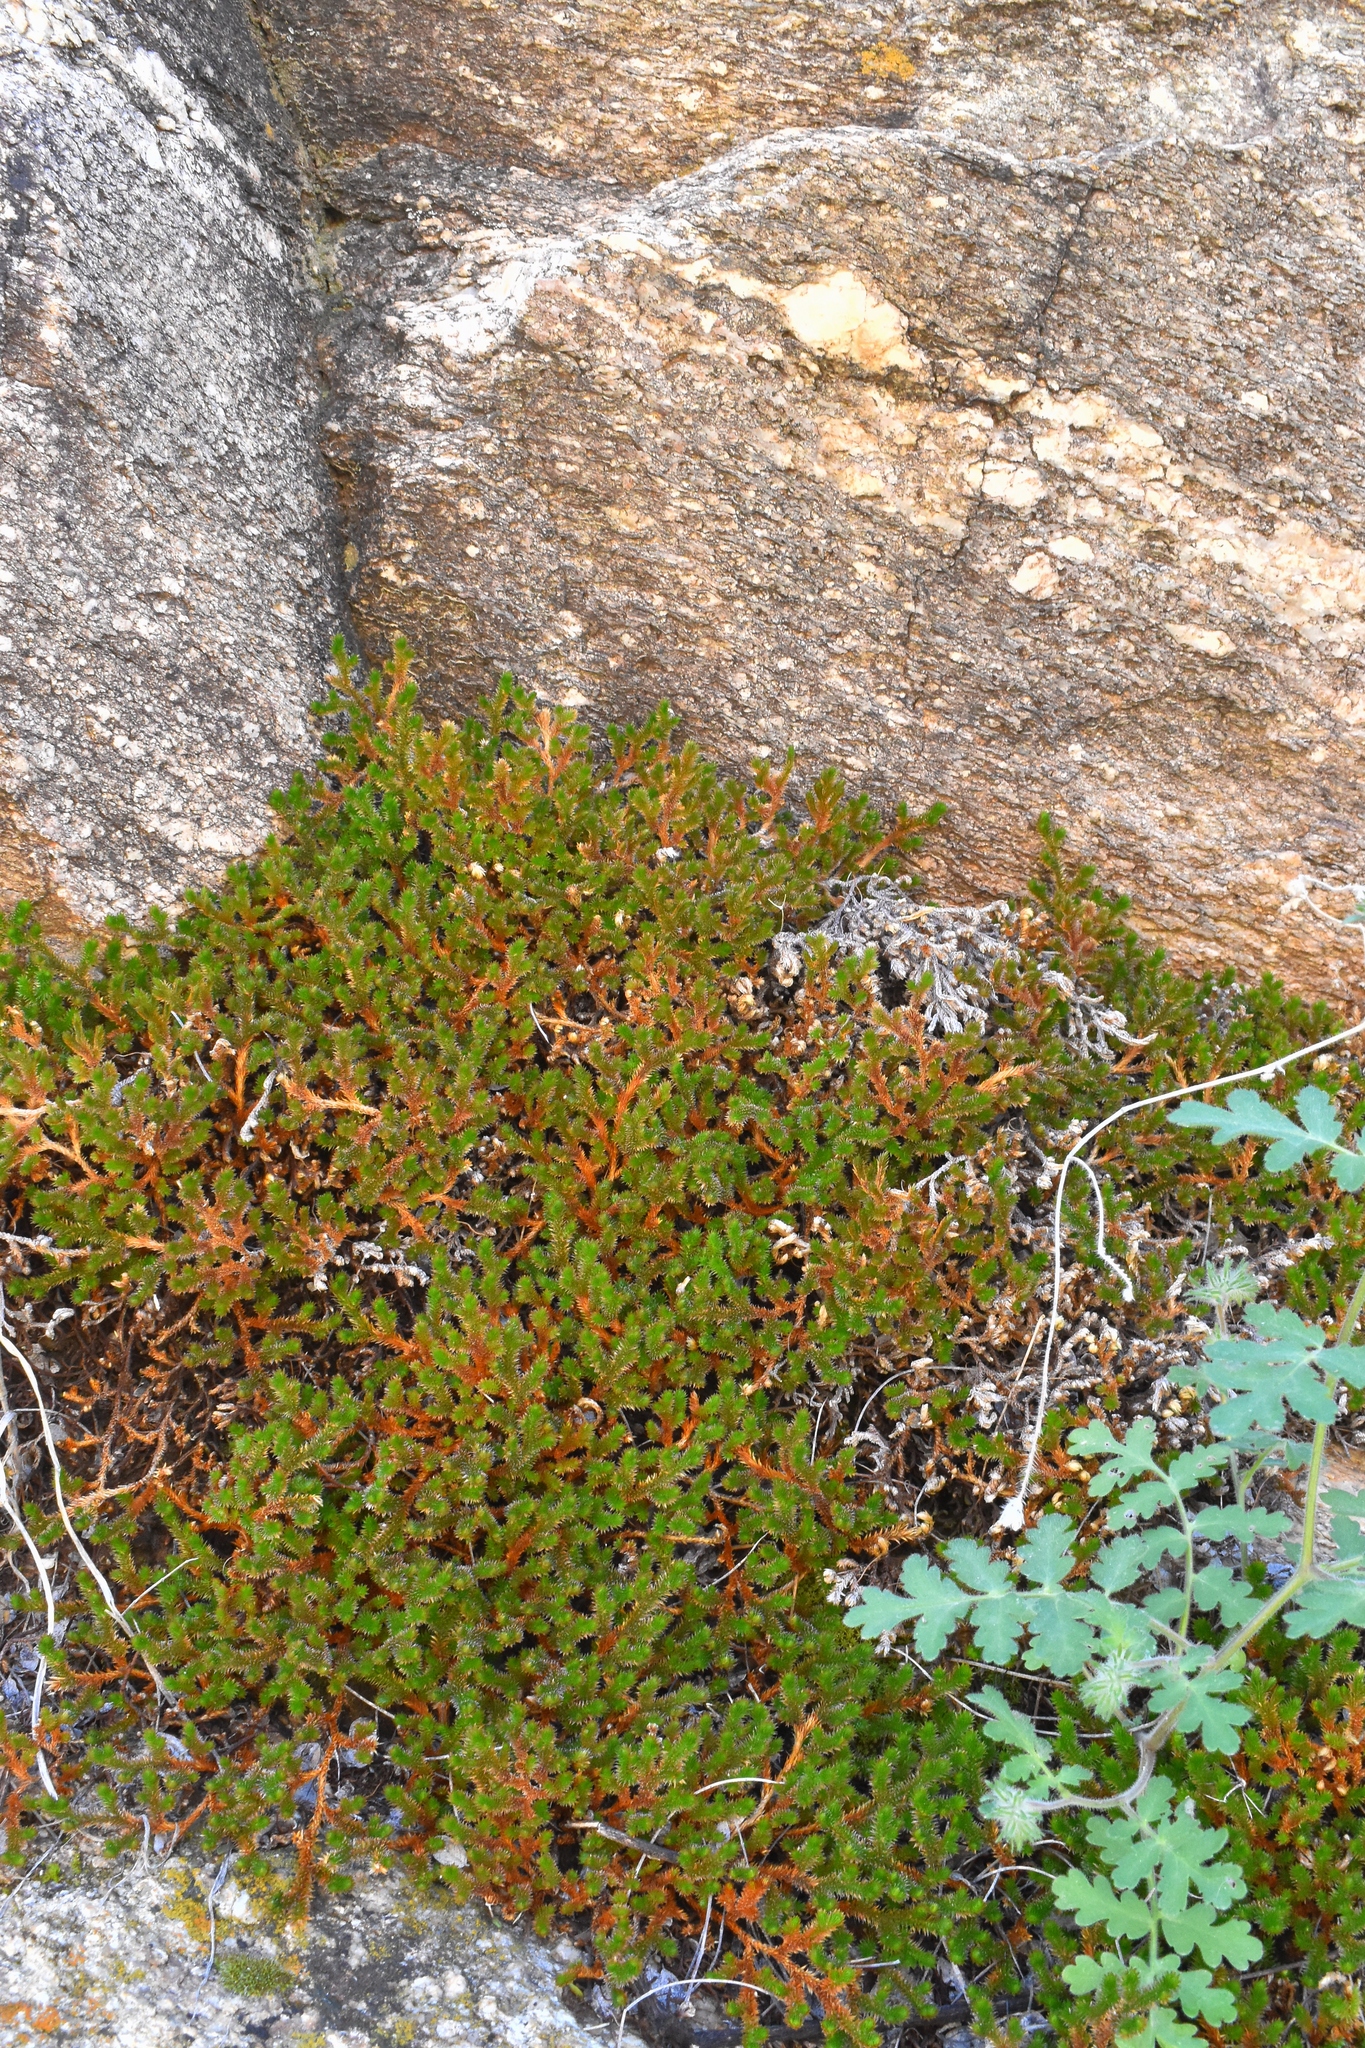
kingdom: Plantae
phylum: Tracheophyta
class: Lycopodiopsida
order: Selaginellales
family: Selaginellaceae
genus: Selaginella
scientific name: Selaginella arizonica
